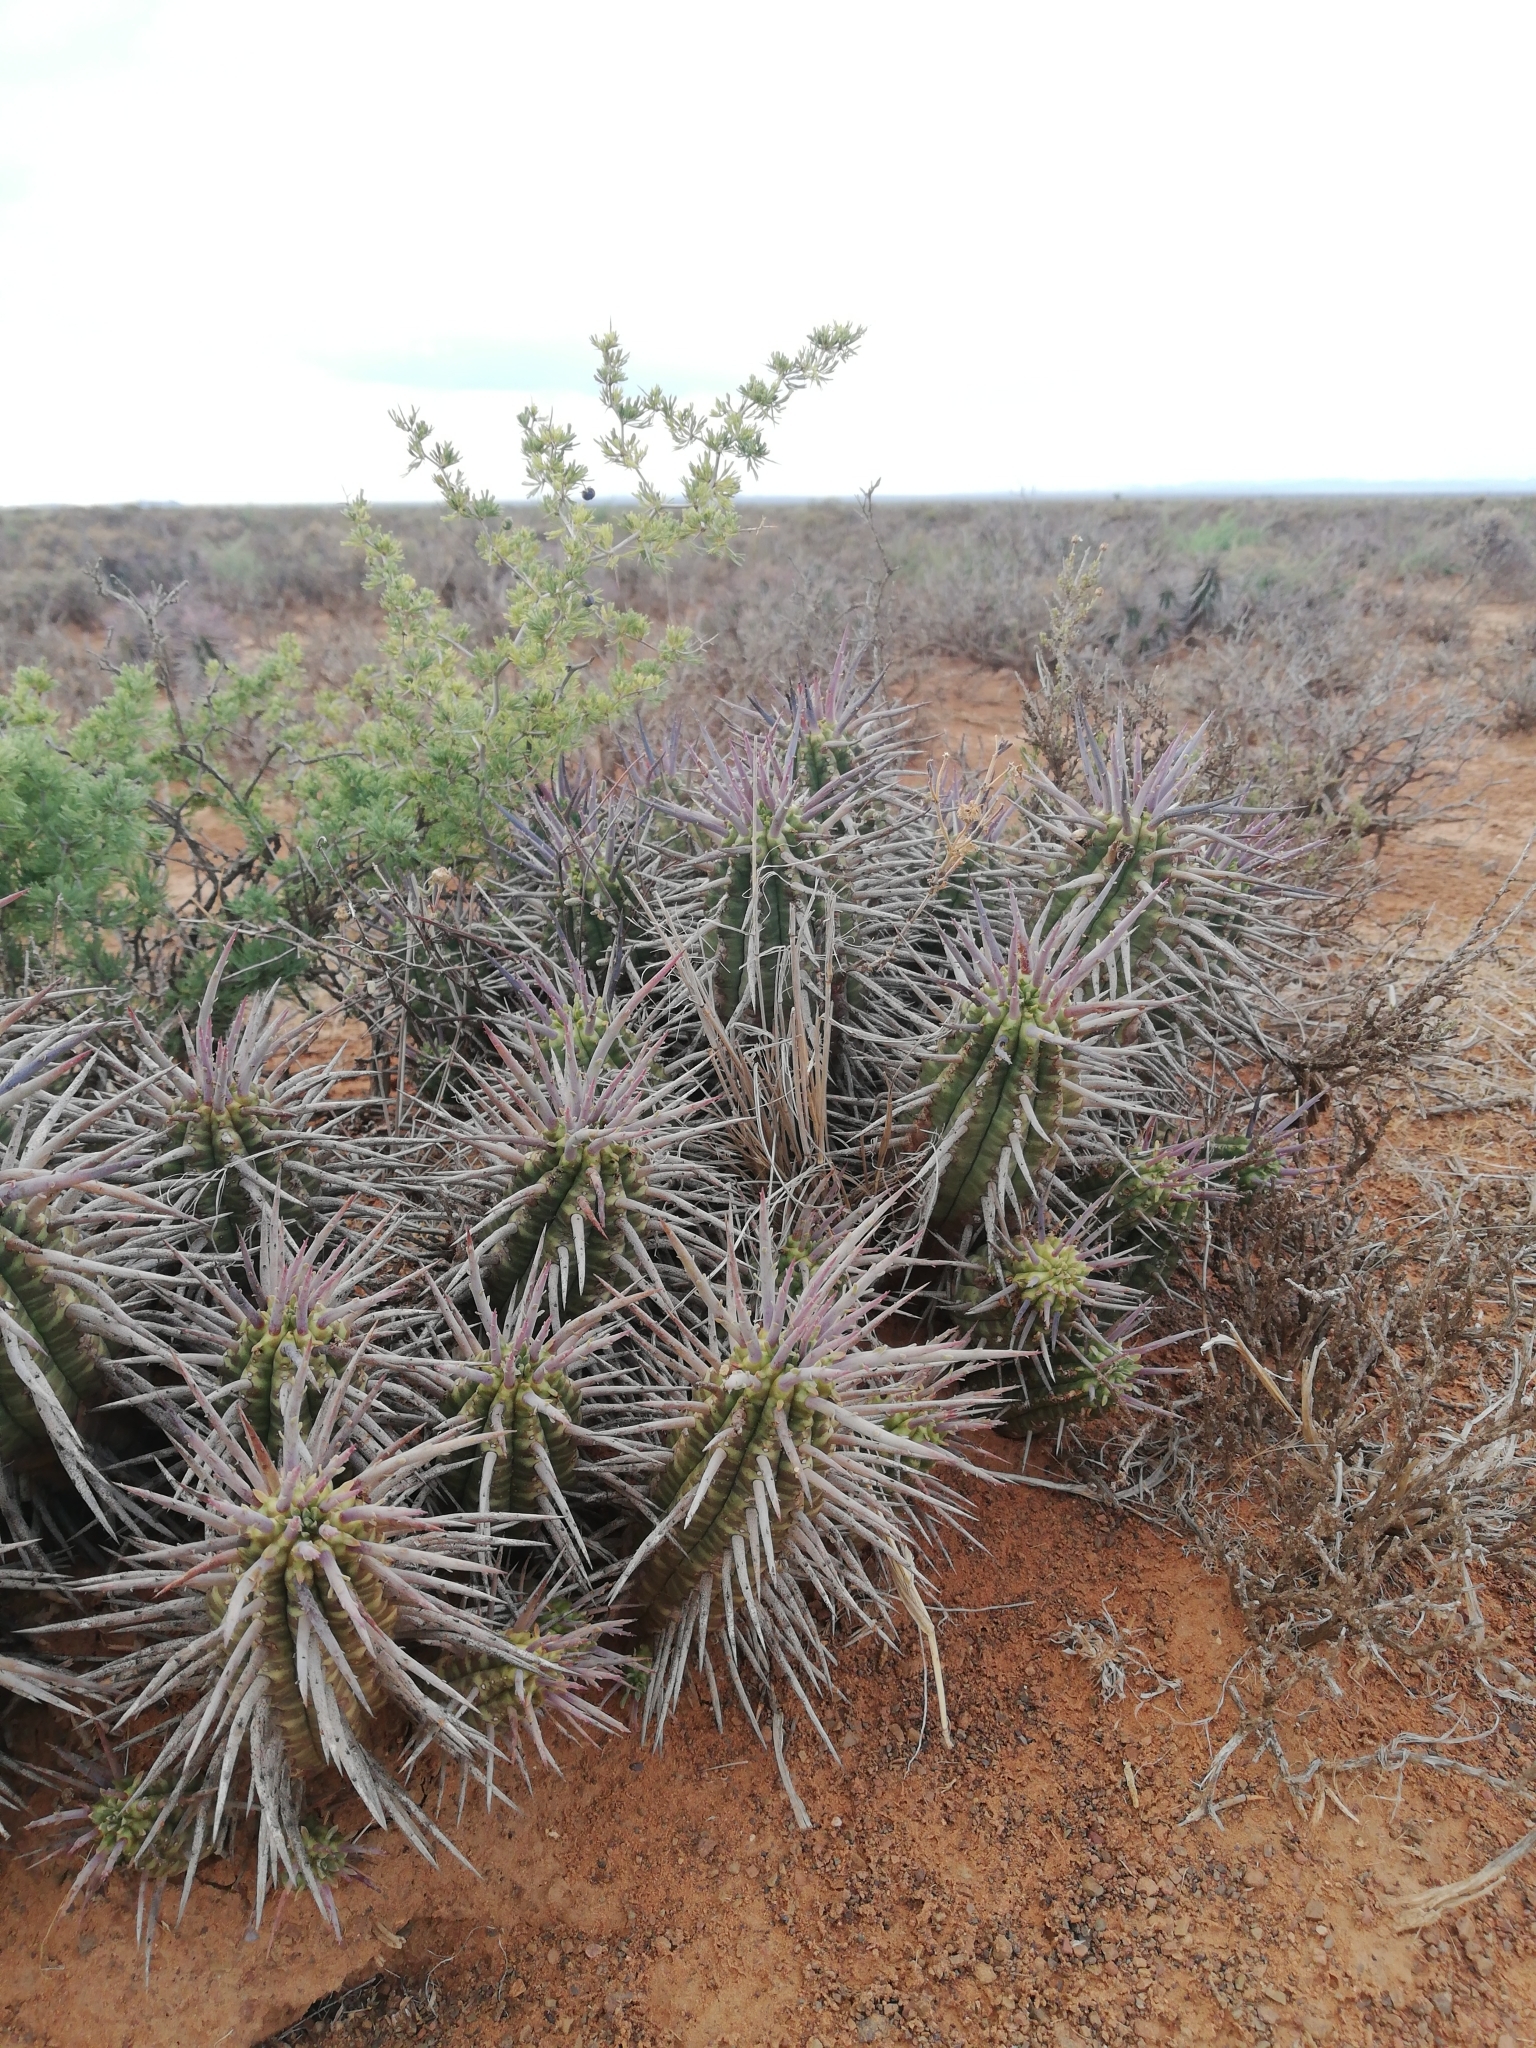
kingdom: Plantae
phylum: Tracheophyta
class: Magnoliopsida
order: Malpighiales
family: Euphorbiaceae
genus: Euphorbia
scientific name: Euphorbia ferox
